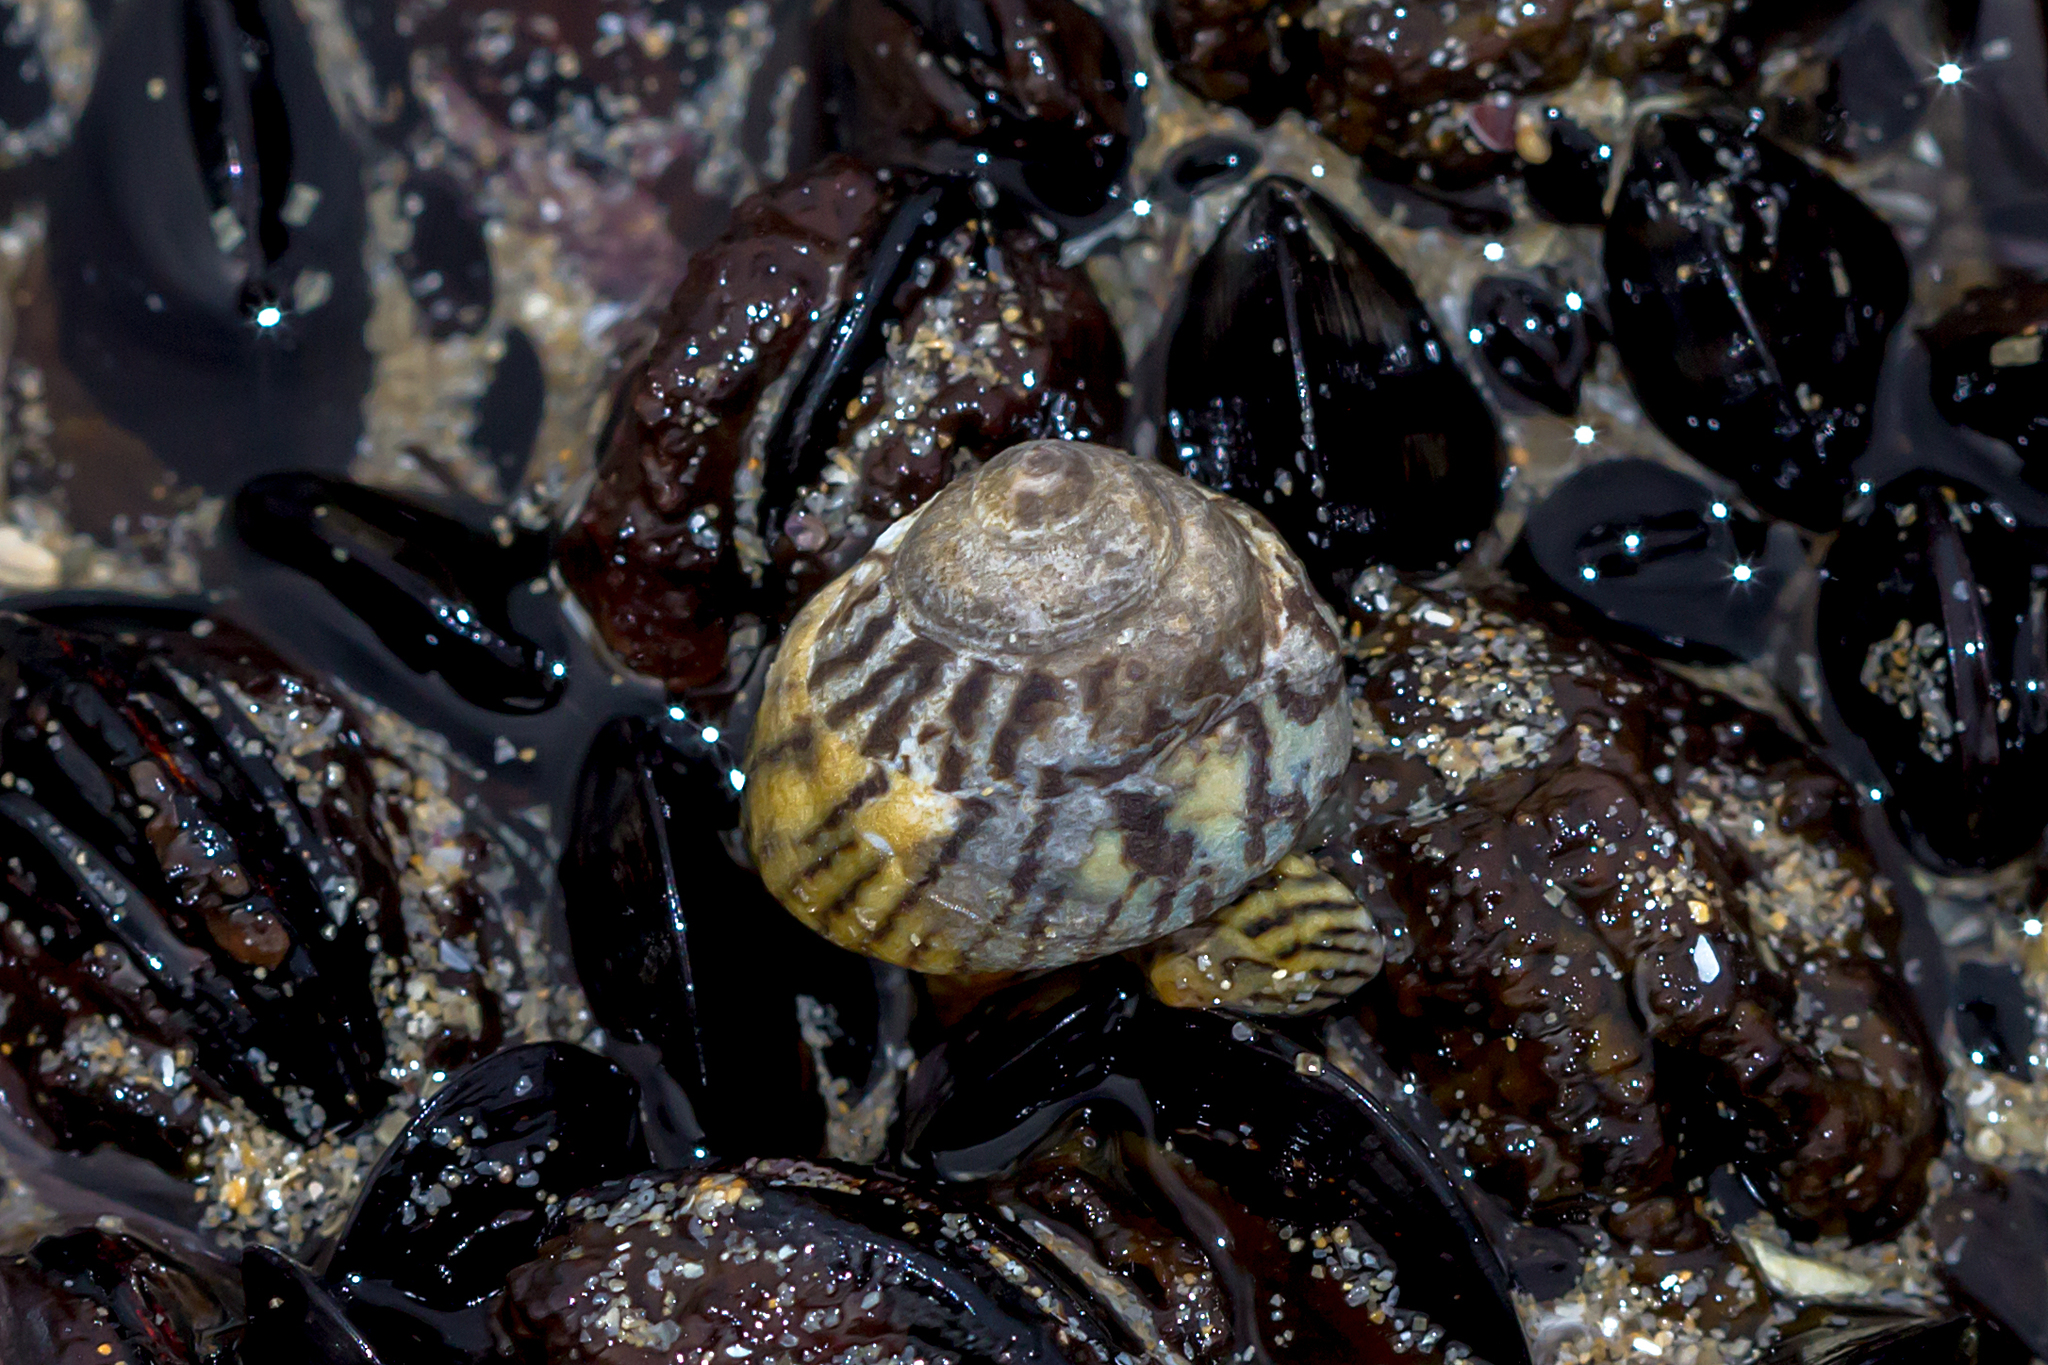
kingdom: Animalia
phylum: Mollusca
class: Gastropoda
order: Littorinimorpha
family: Littorinidae
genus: Bembicium
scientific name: Bembicium nanum
